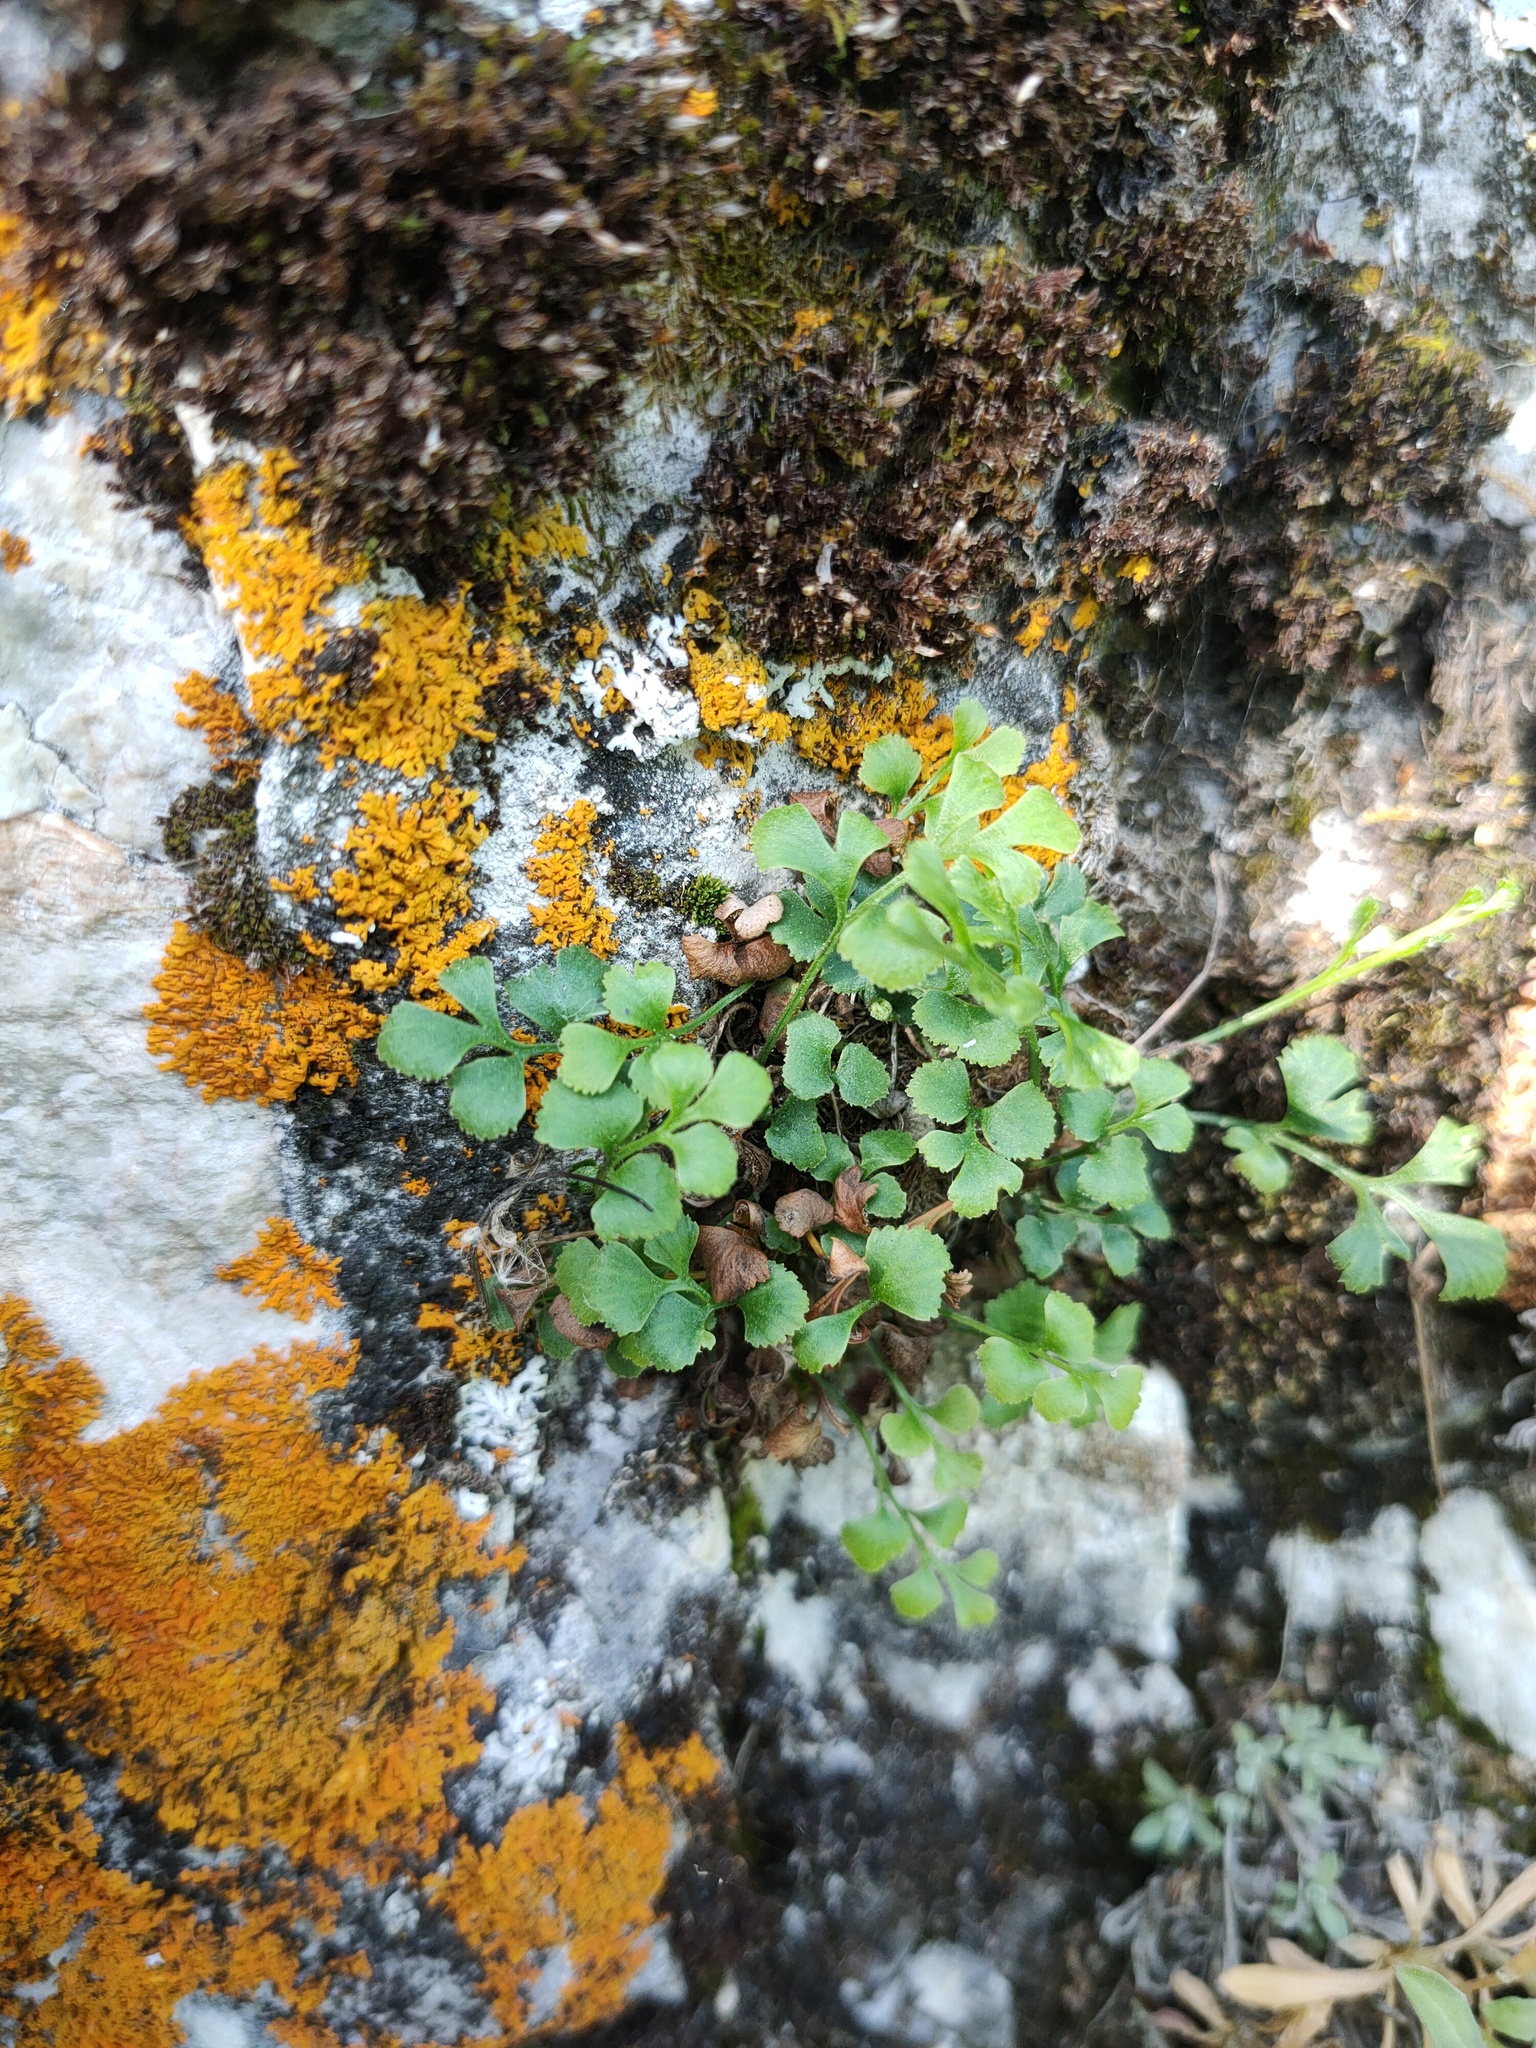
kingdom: Plantae
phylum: Tracheophyta
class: Polypodiopsida
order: Polypodiales
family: Aspleniaceae
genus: Asplenium
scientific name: Asplenium ruta-muraria
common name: Wall-rue
